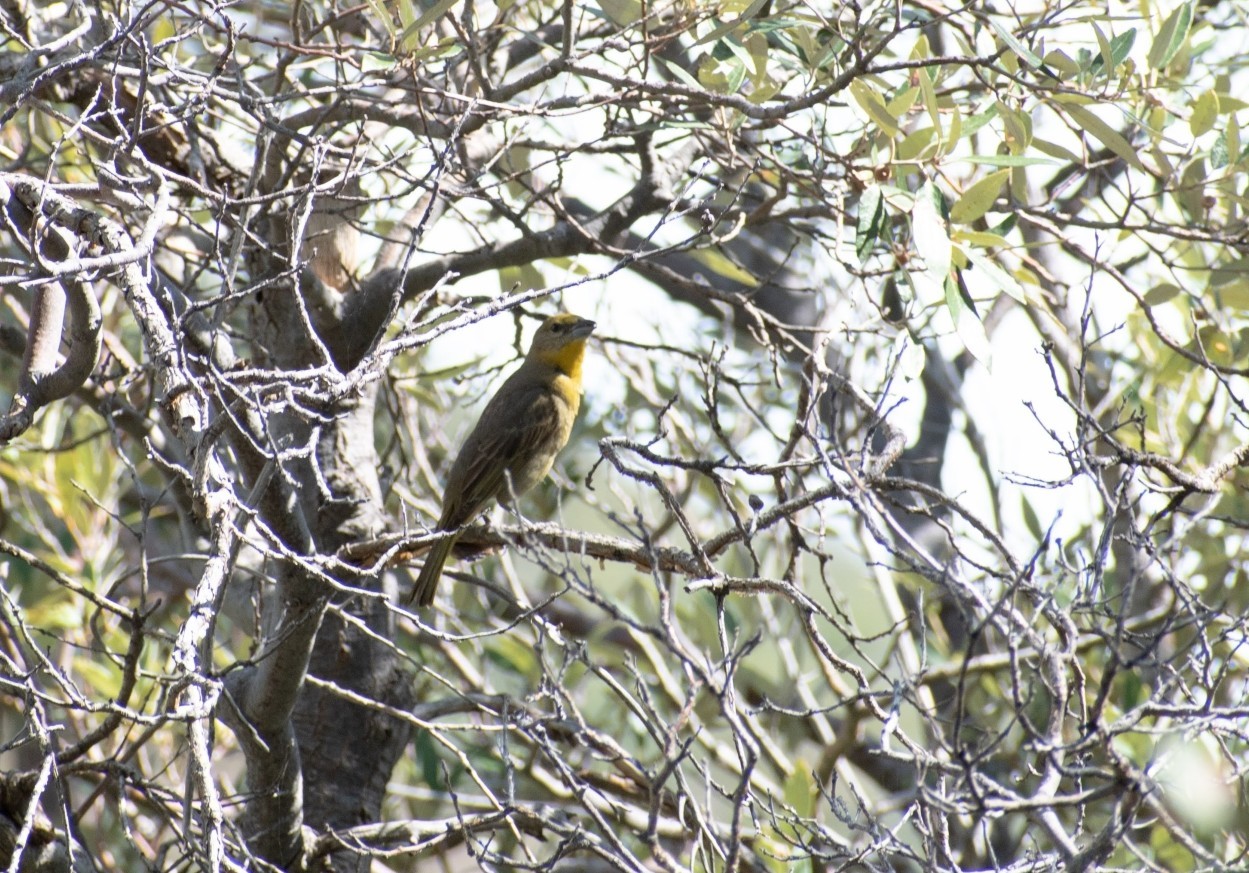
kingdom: Animalia
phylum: Chordata
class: Aves
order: Passeriformes
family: Cardinalidae
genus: Piranga
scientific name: Piranga flava
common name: Red tanager
